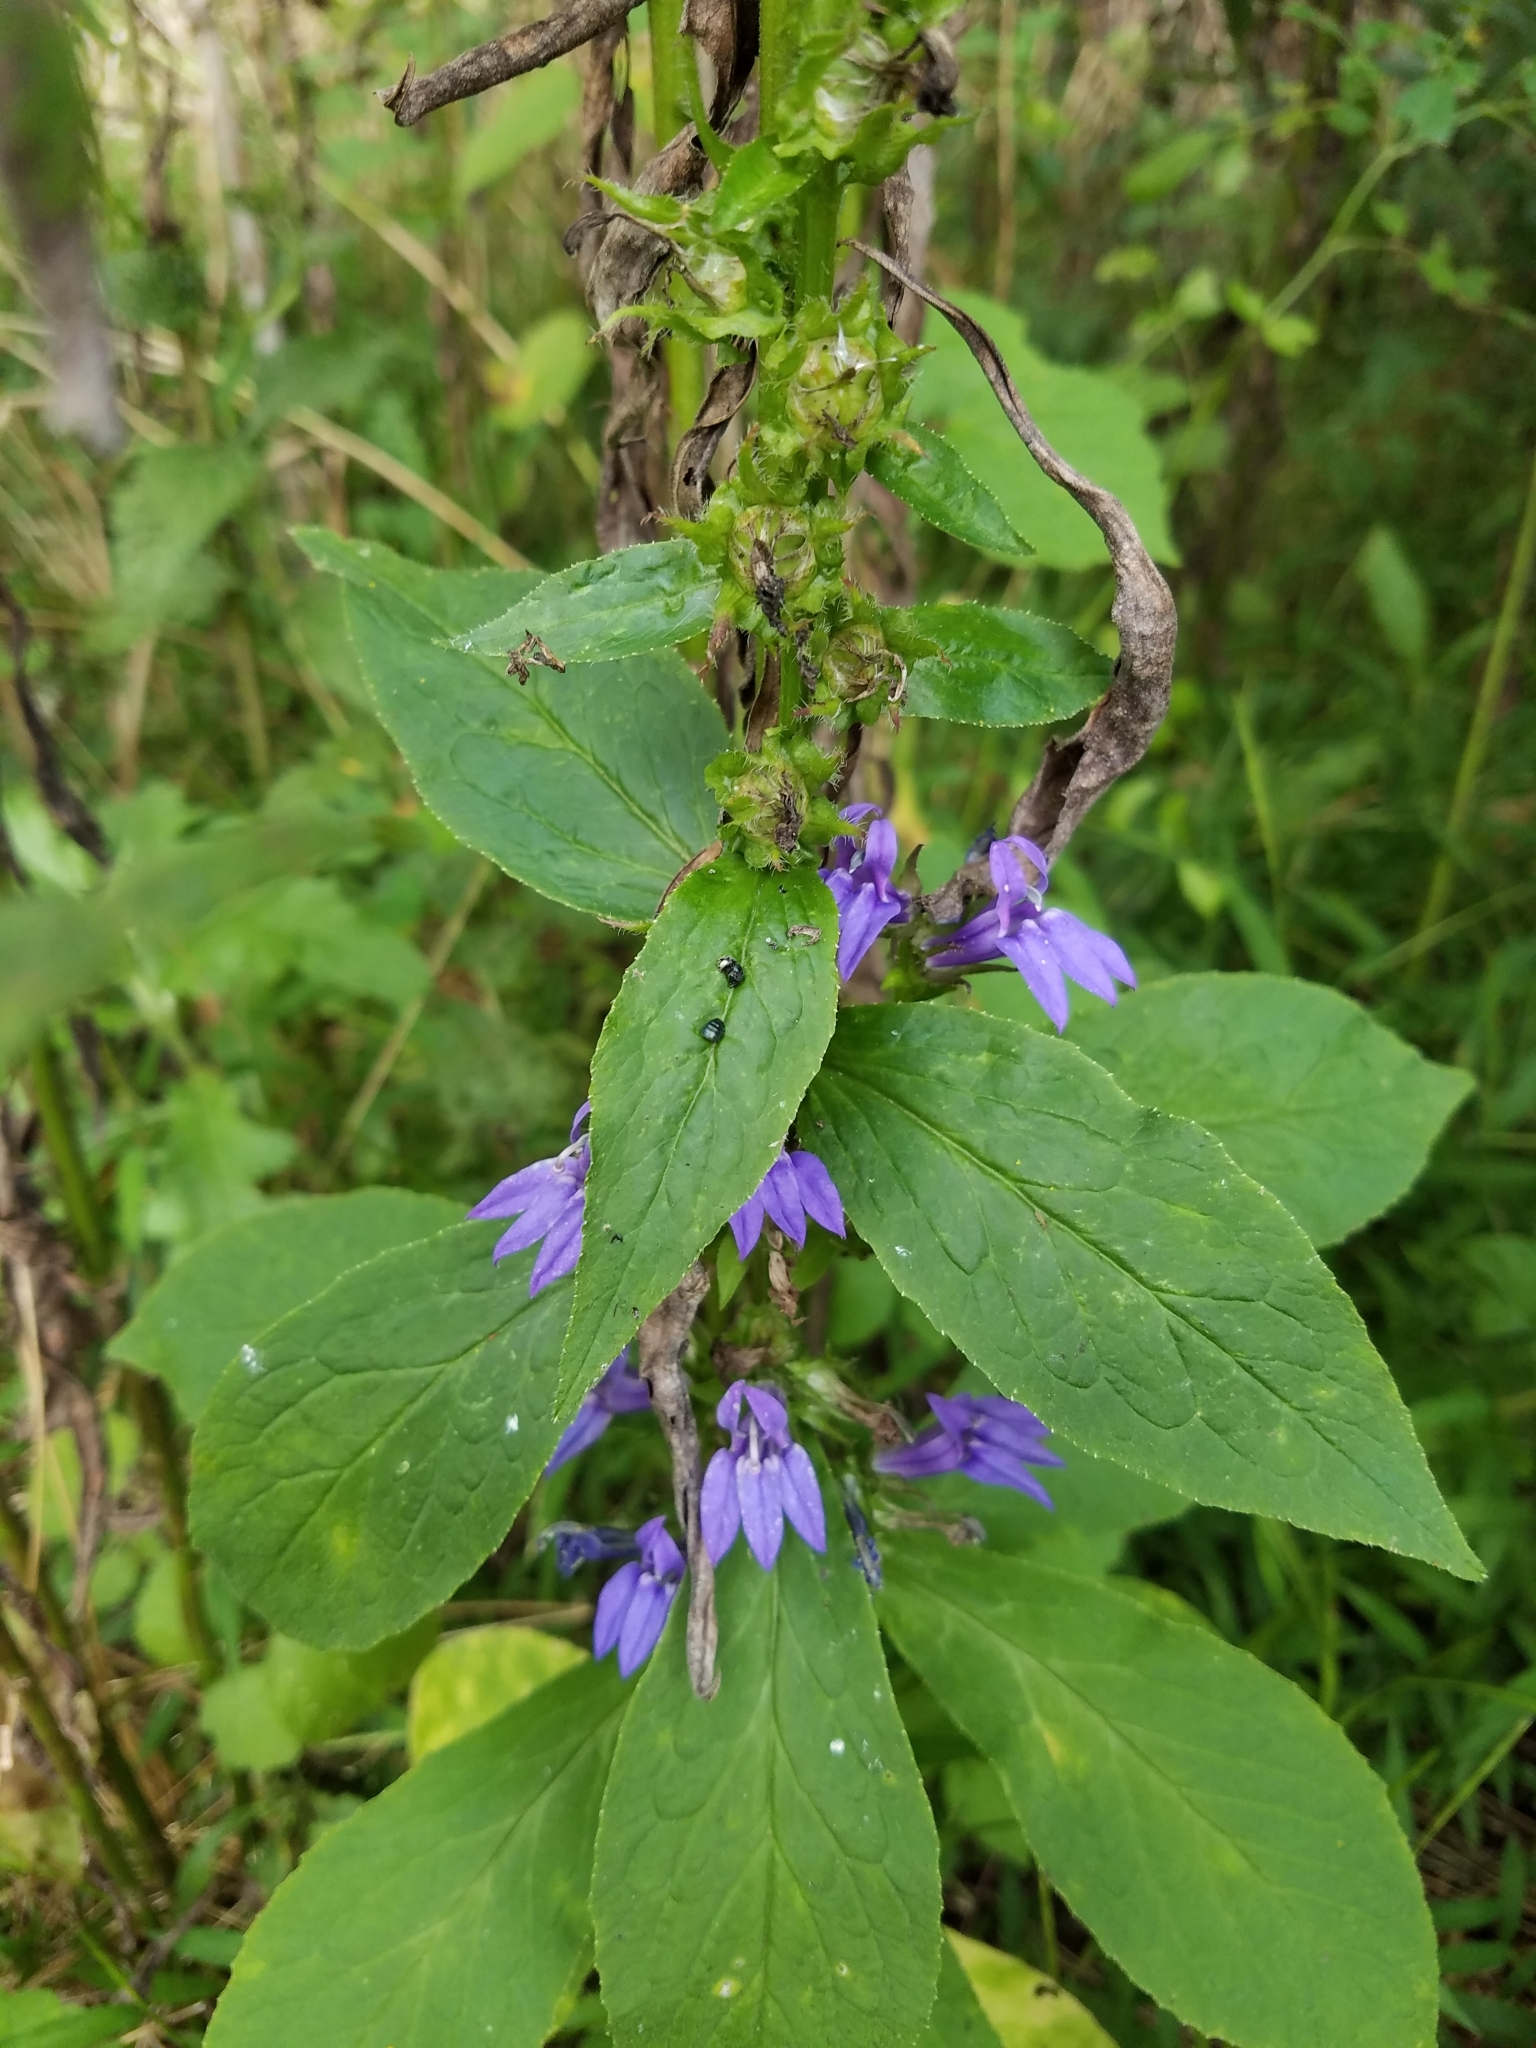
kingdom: Plantae
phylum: Tracheophyta
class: Magnoliopsida
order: Asterales
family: Campanulaceae
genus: Lobelia
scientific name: Lobelia siphilitica
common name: Great lobelia
